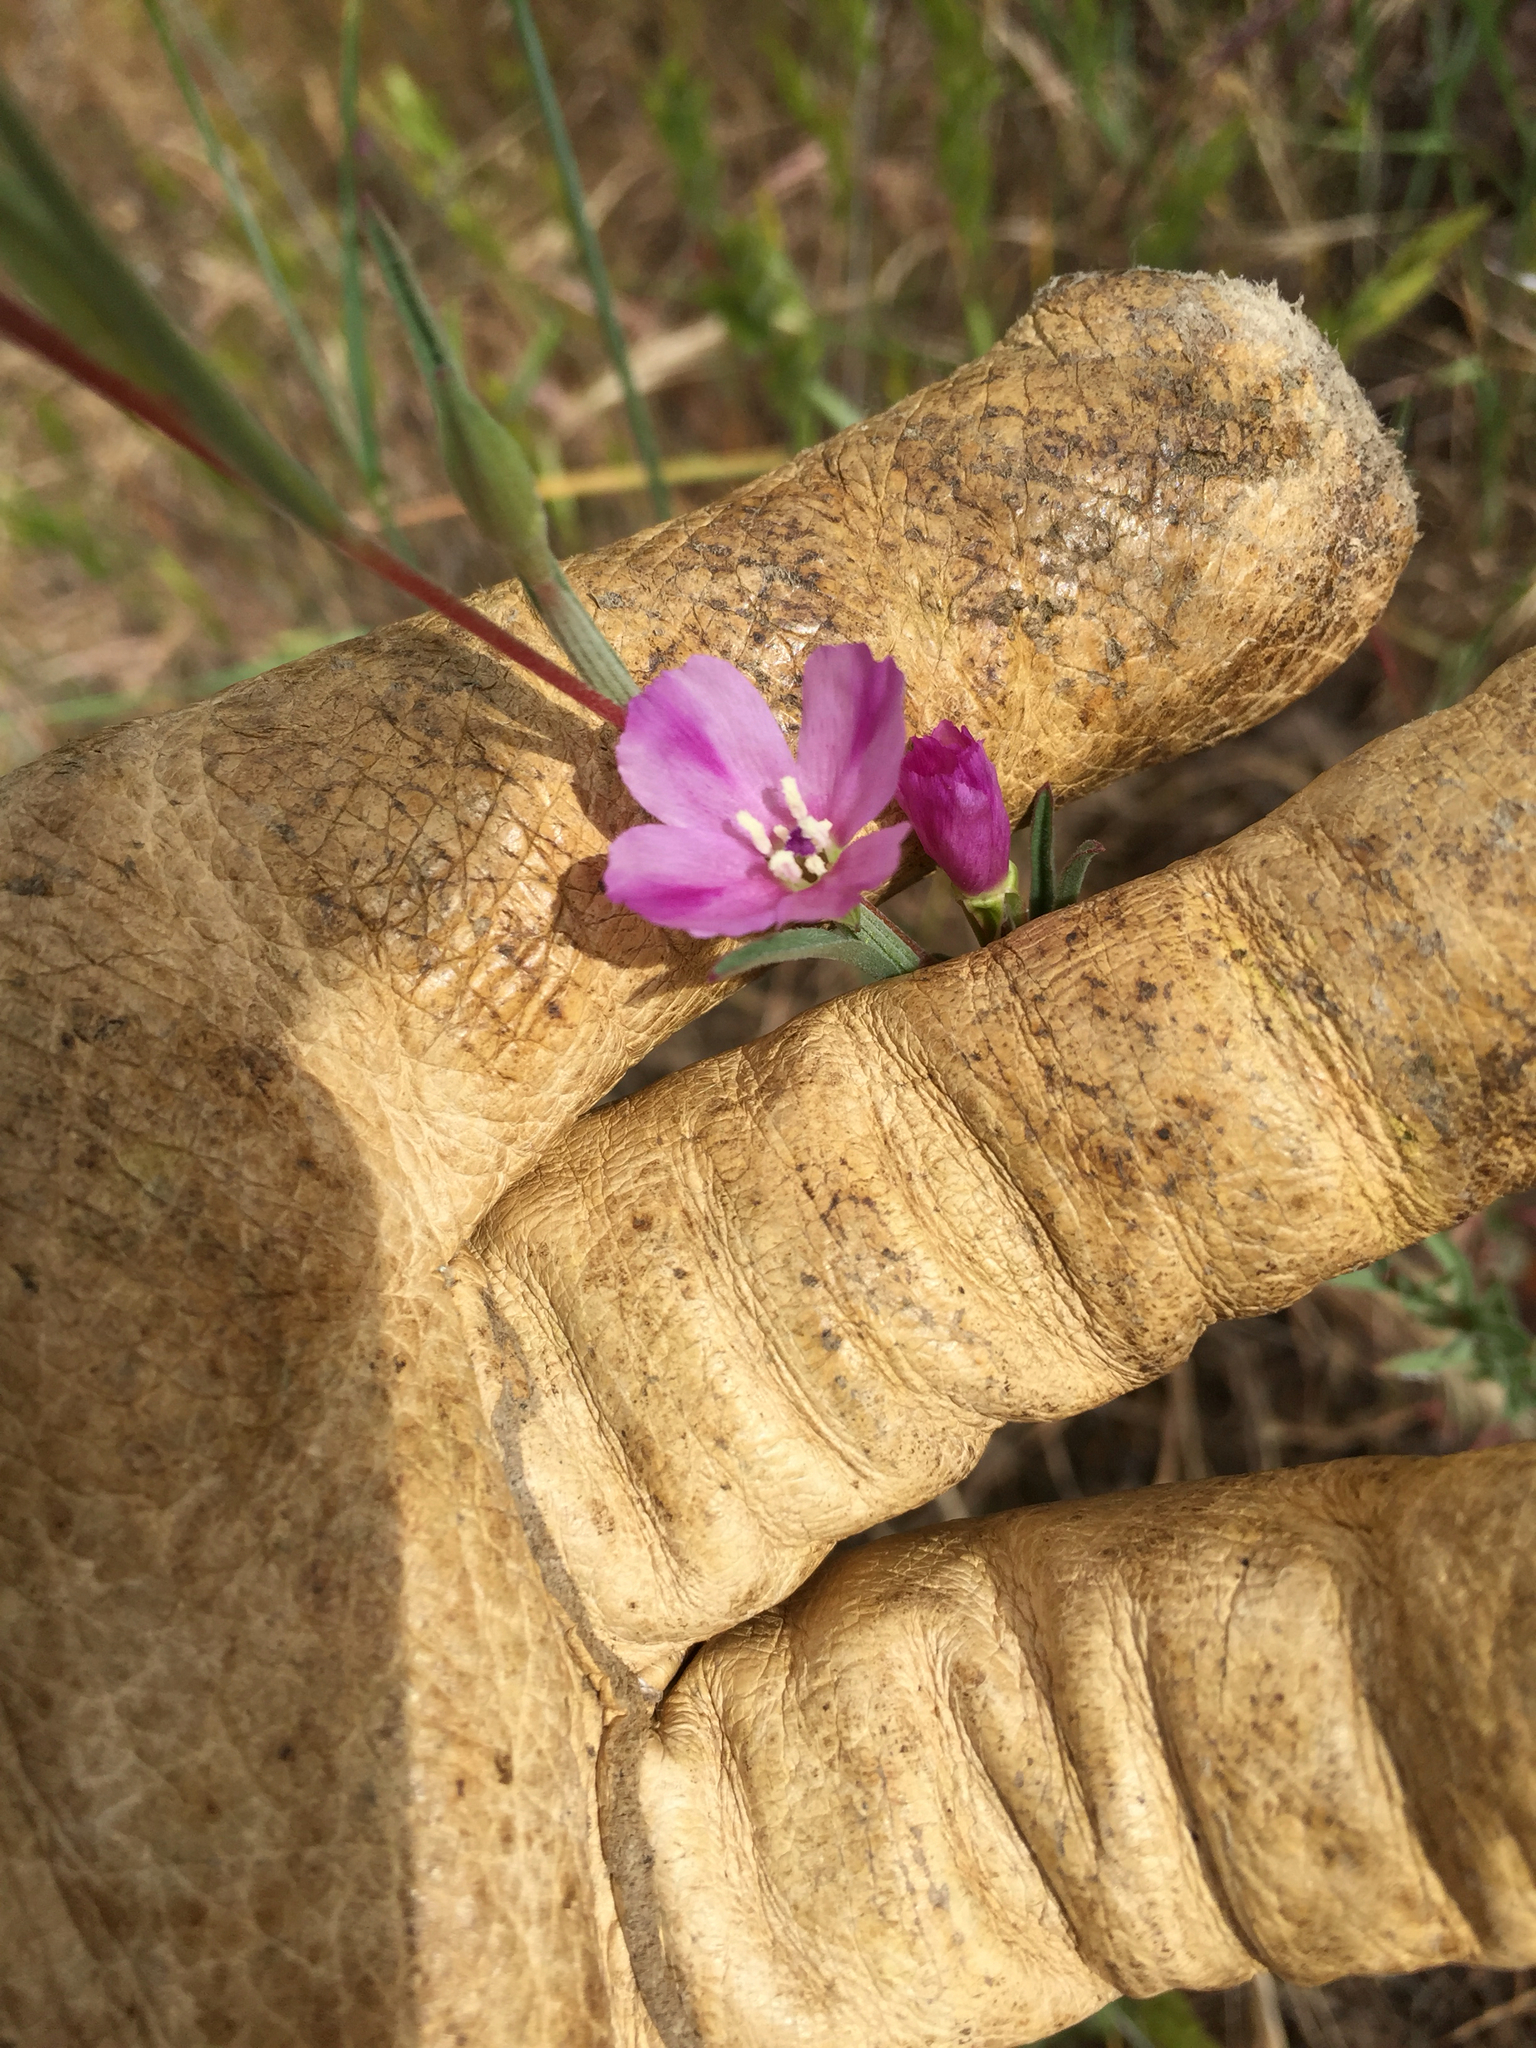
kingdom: Plantae
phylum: Tracheophyta
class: Magnoliopsida
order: Myrtales
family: Onagraceae
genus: Clarkia
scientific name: Clarkia purpurea
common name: Purple clarkia
